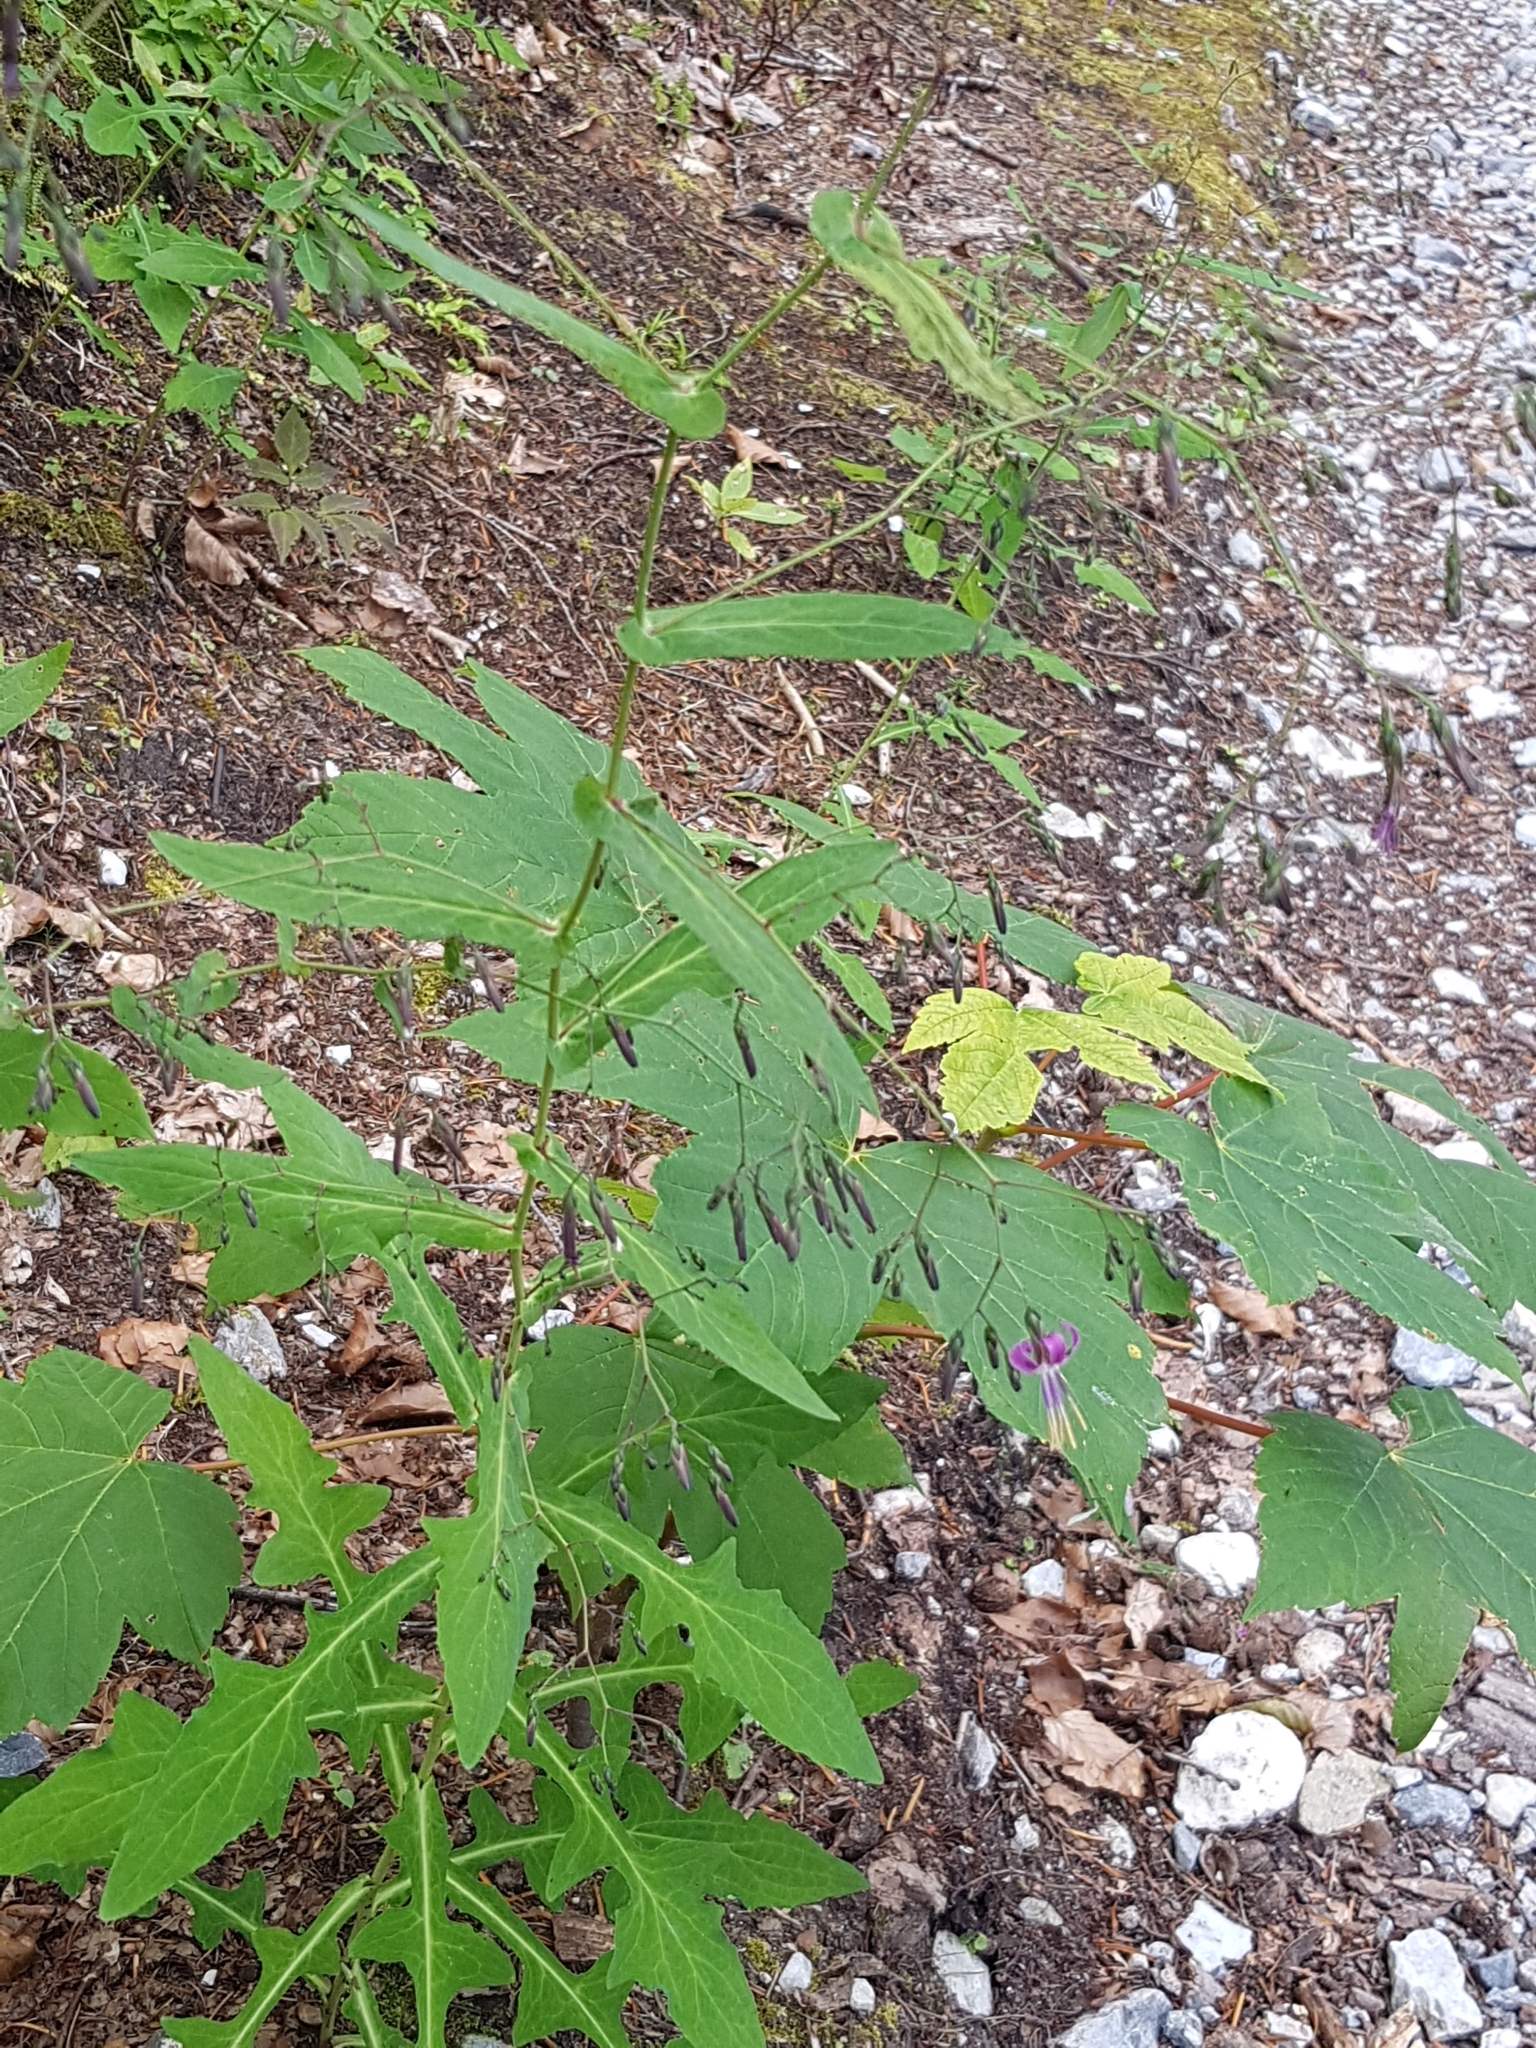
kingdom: Plantae
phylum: Tracheophyta
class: Magnoliopsida
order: Asterales
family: Asteraceae
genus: Prenanthes
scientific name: Prenanthes purpurea
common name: Purple lettuce
